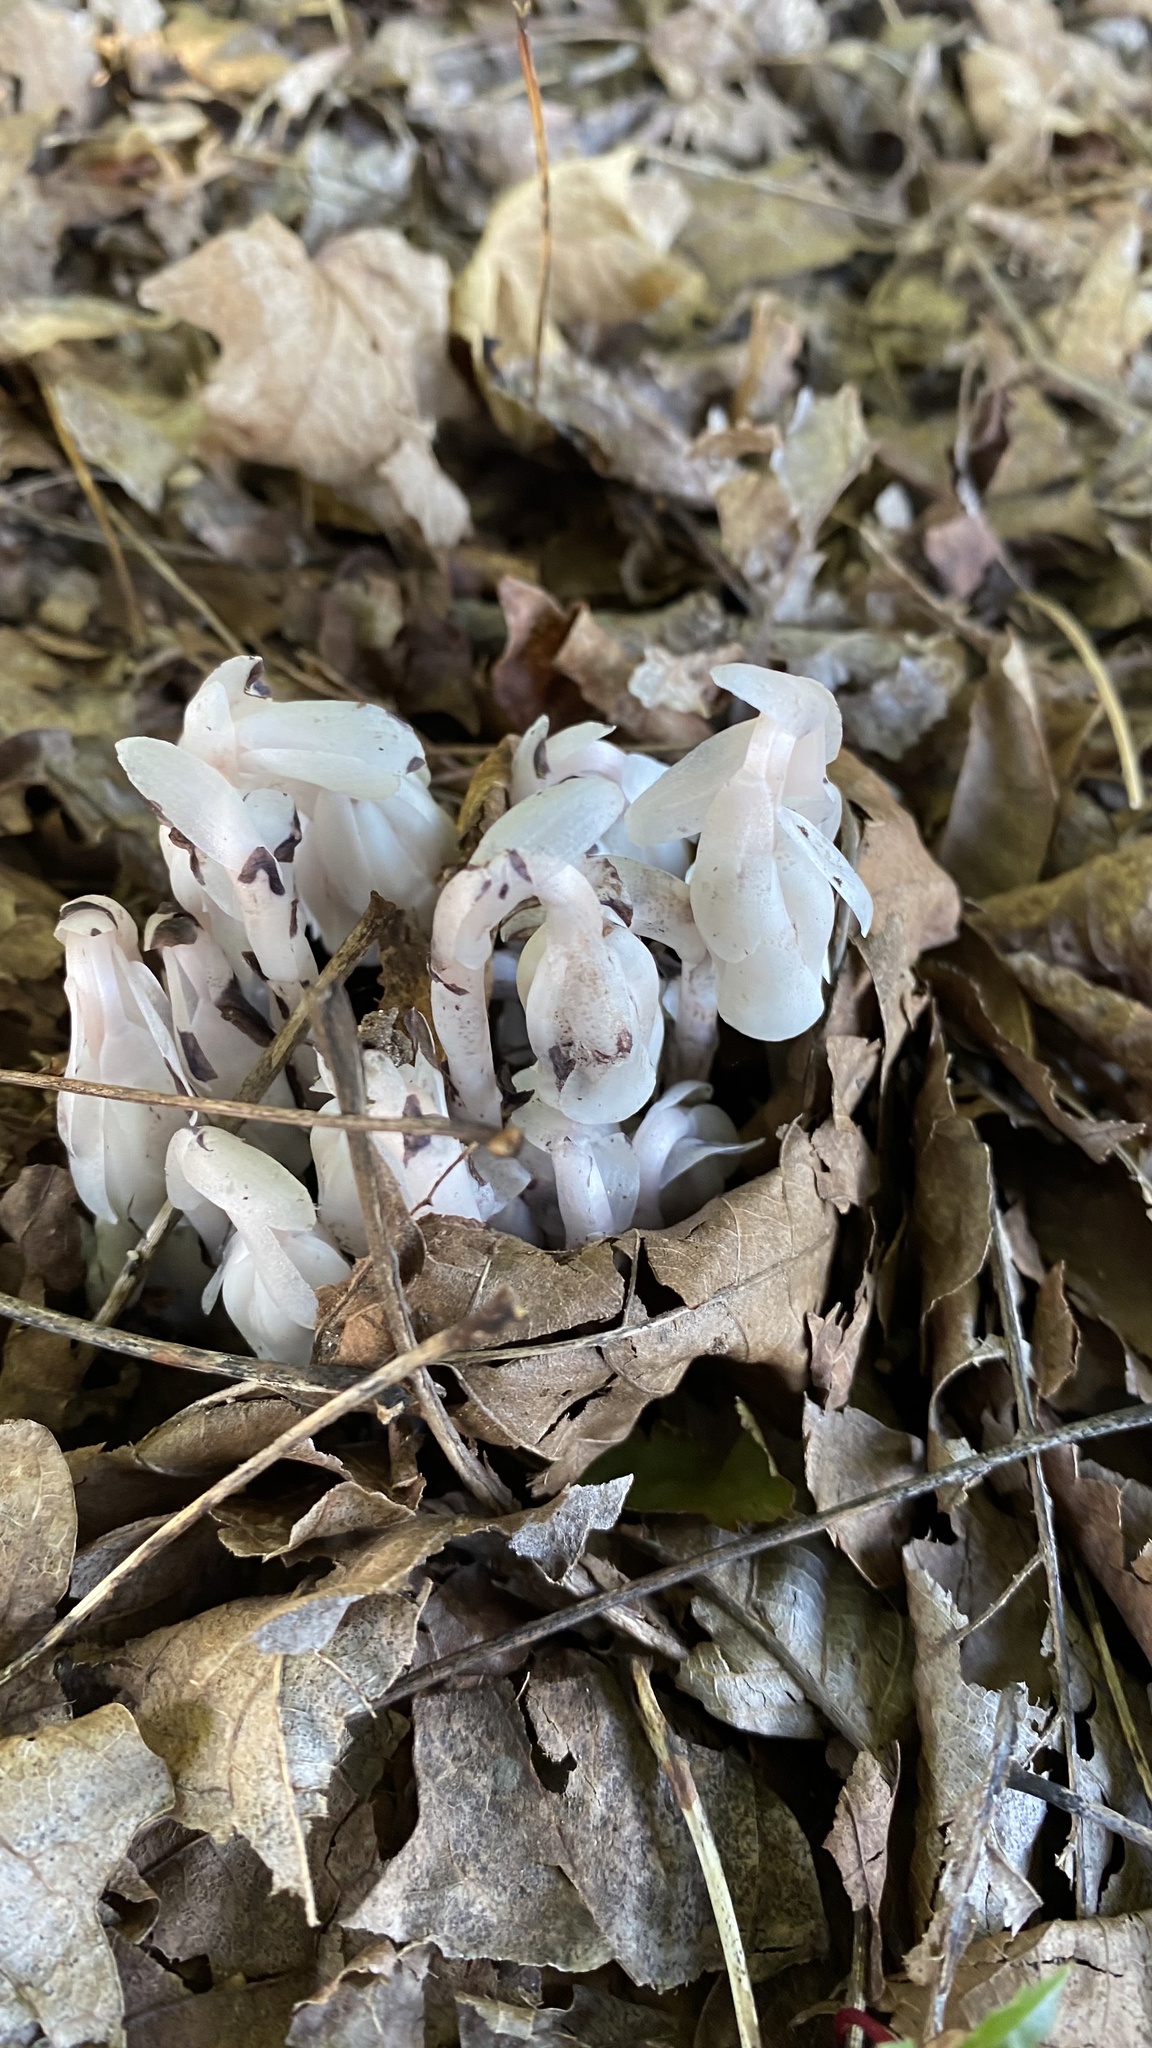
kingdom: Plantae
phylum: Tracheophyta
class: Magnoliopsida
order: Ericales
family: Ericaceae
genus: Monotropa
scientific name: Monotropa uniflora
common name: Convulsion root
